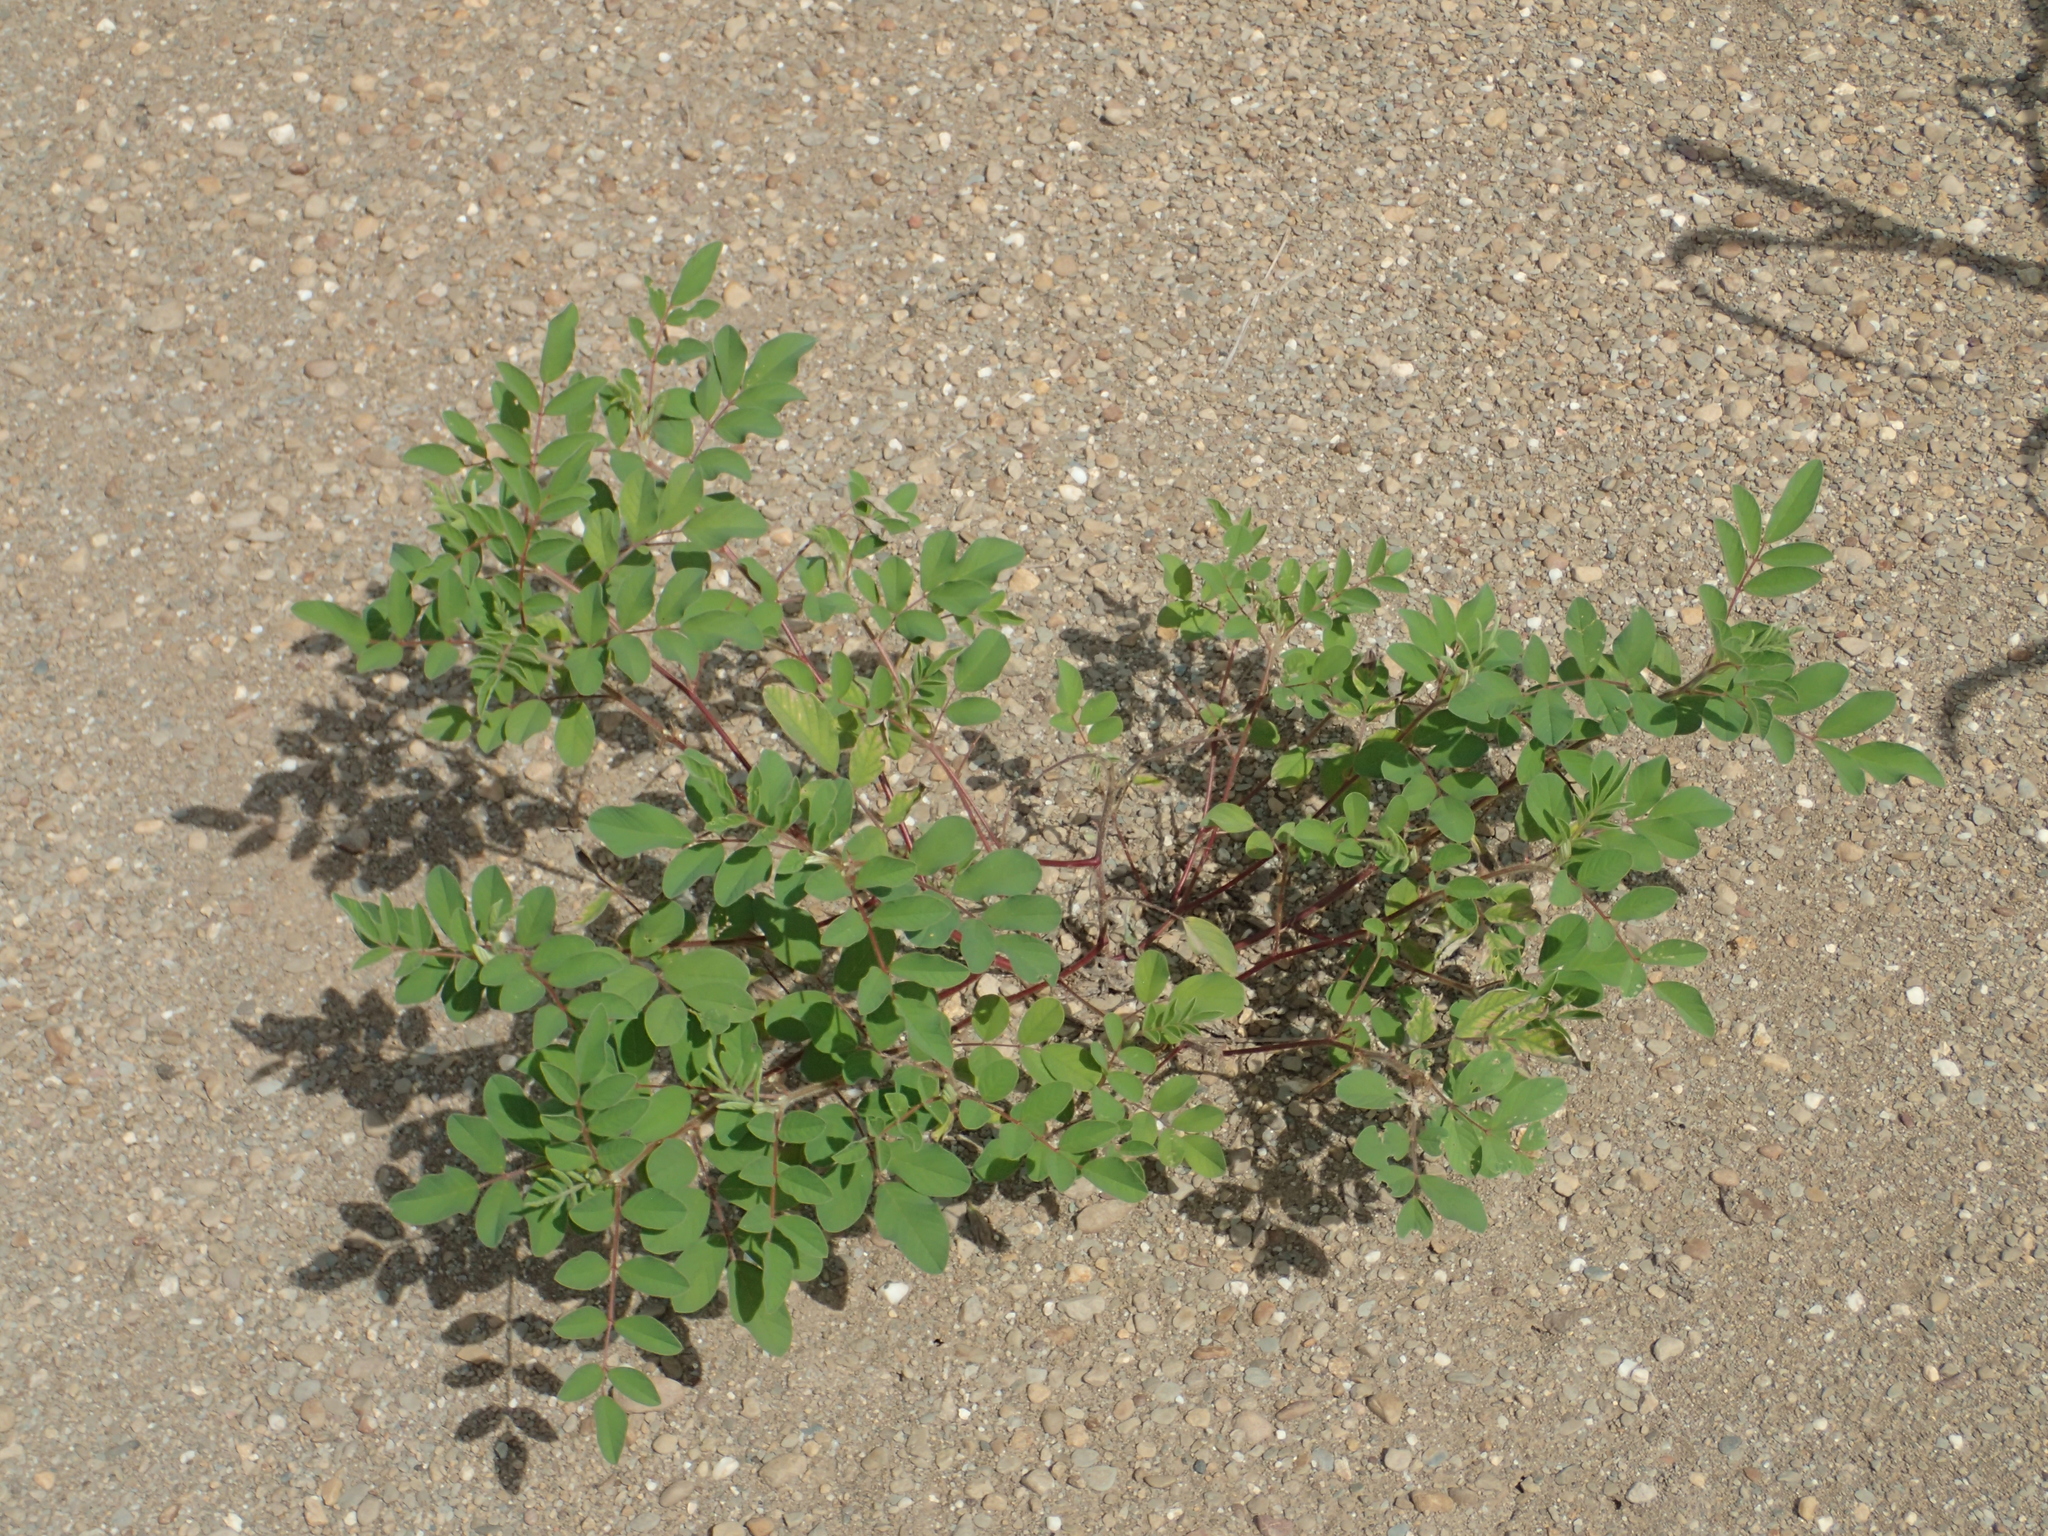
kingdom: Plantae
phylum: Tracheophyta
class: Magnoliopsida
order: Fabales
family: Fabaceae
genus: Indigofera
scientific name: Indigofera hirsuta
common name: Hairy indigo
